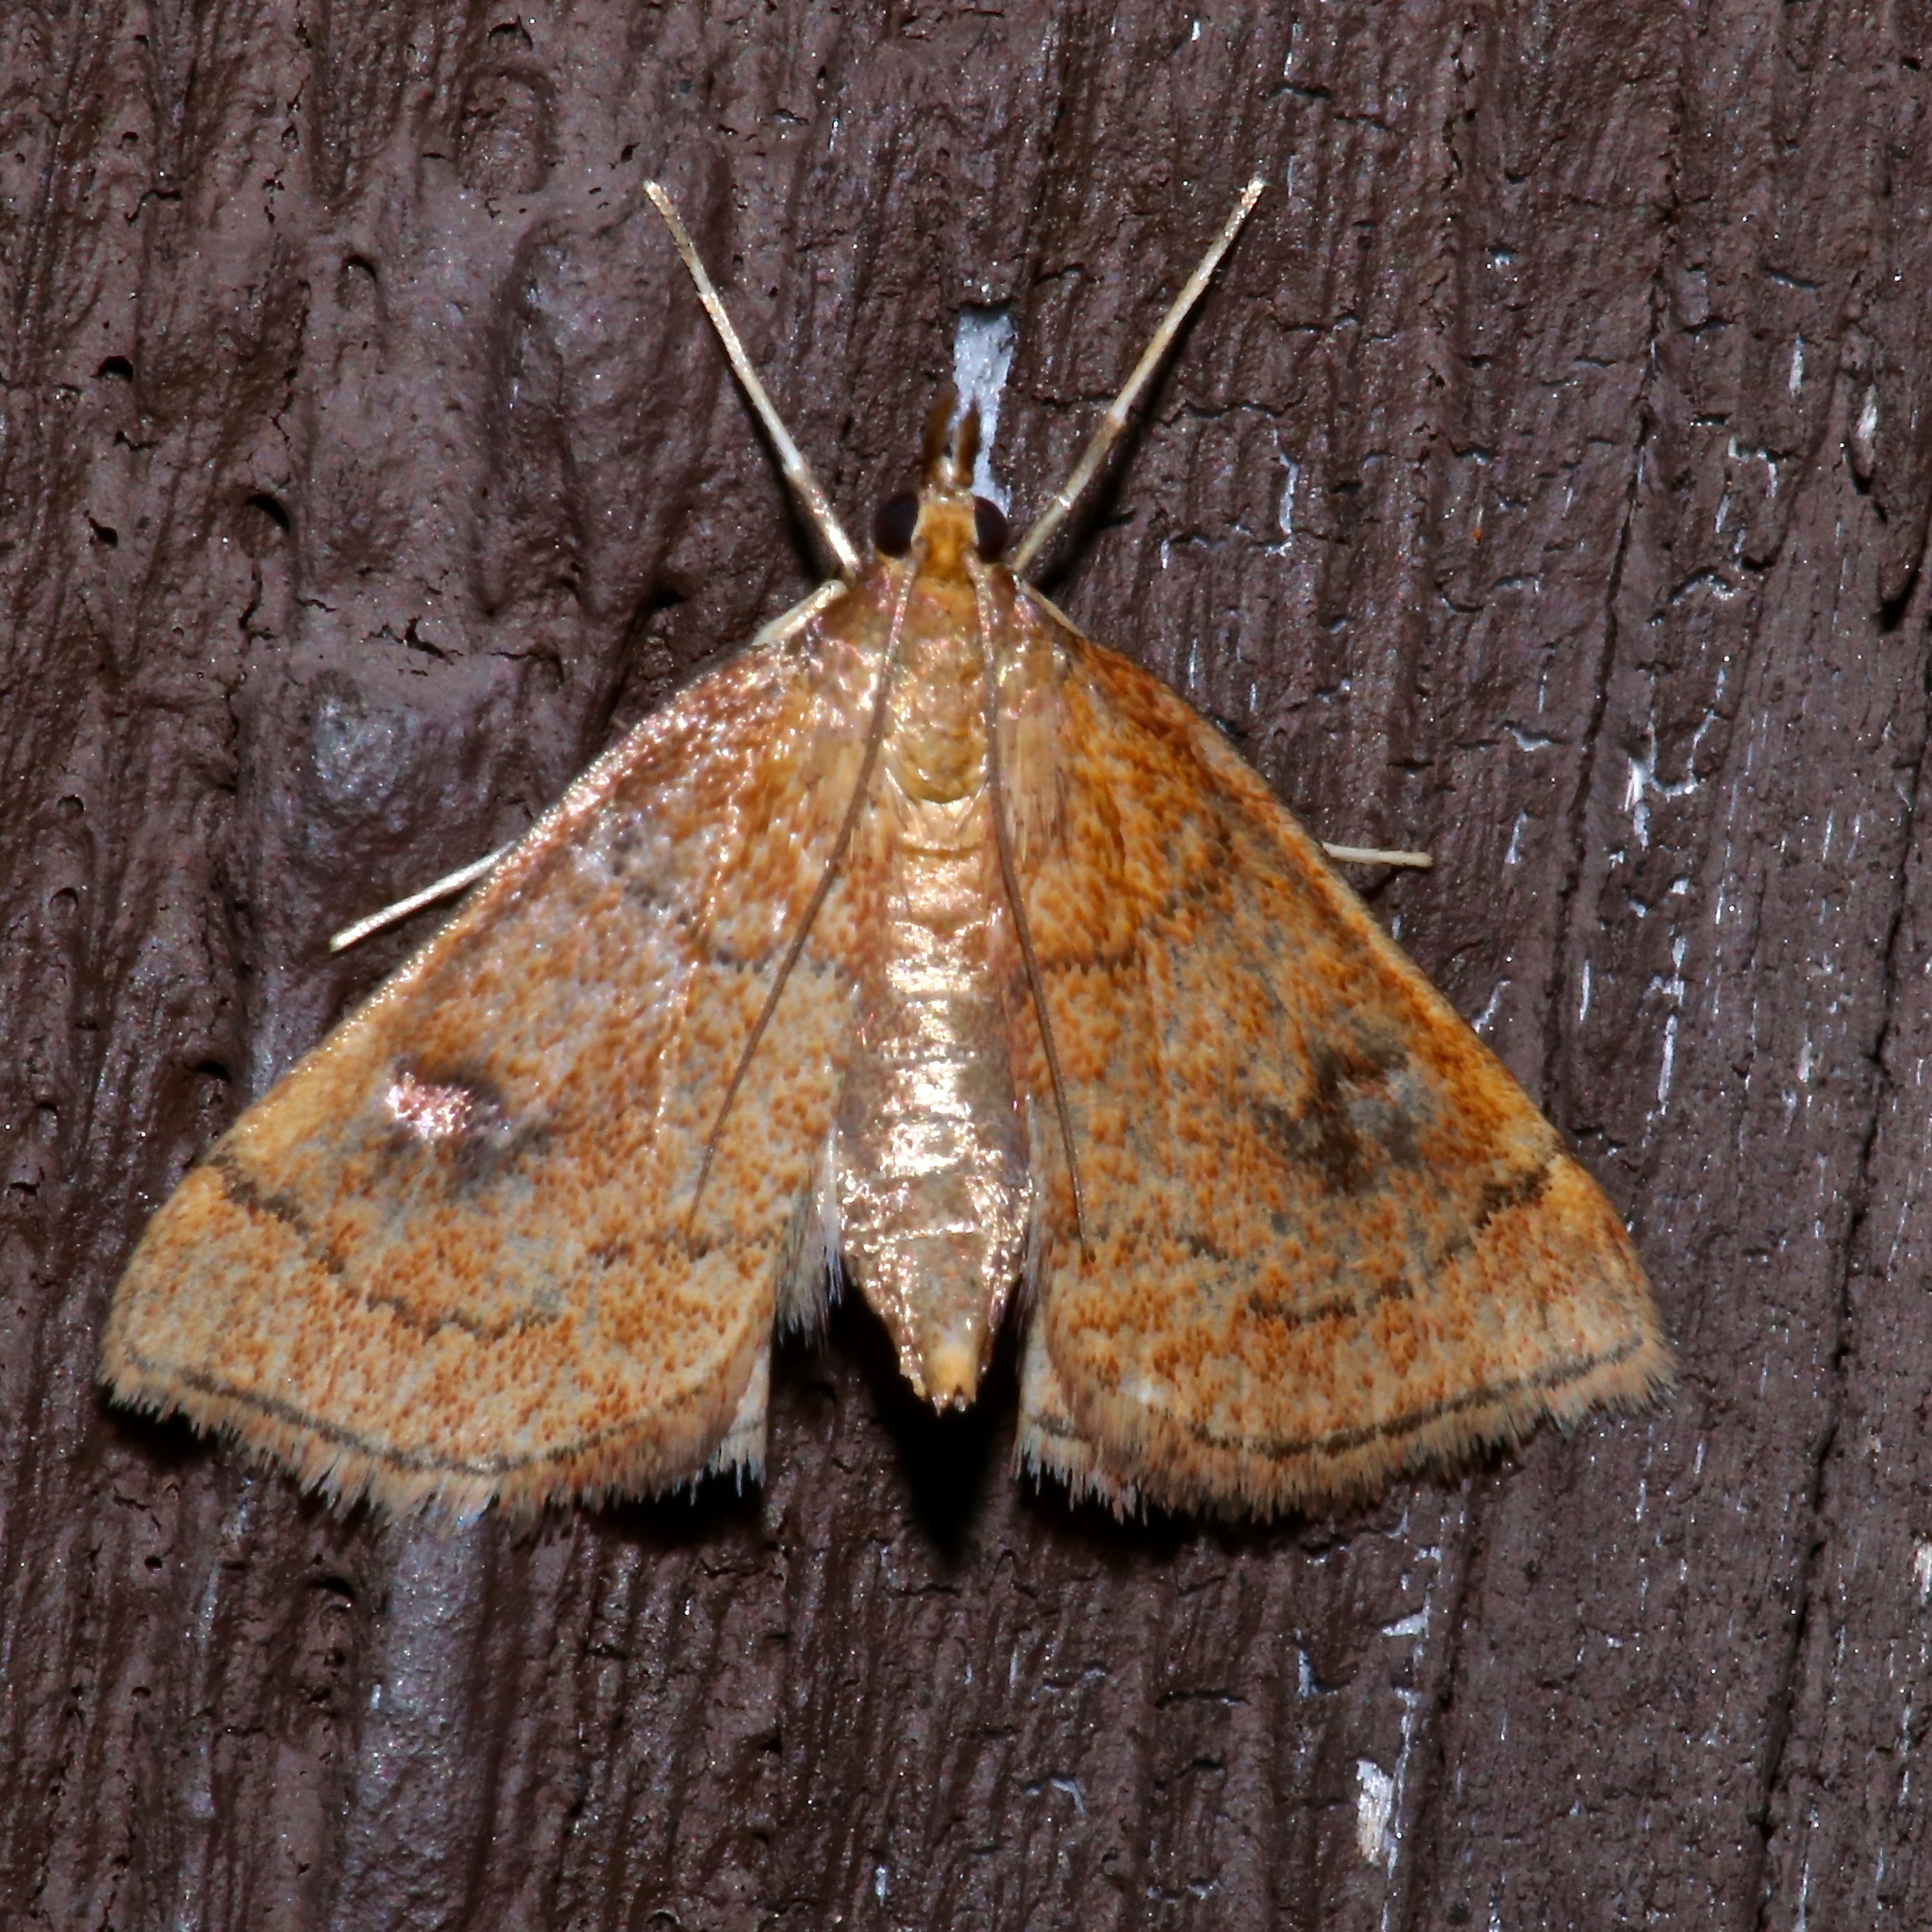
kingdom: Animalia
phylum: Arthropoda
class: Insecta
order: Lepidoptera
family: Crambidae
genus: Fumibotys
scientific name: Fumibotys fumalis
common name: Mint root borer moth
